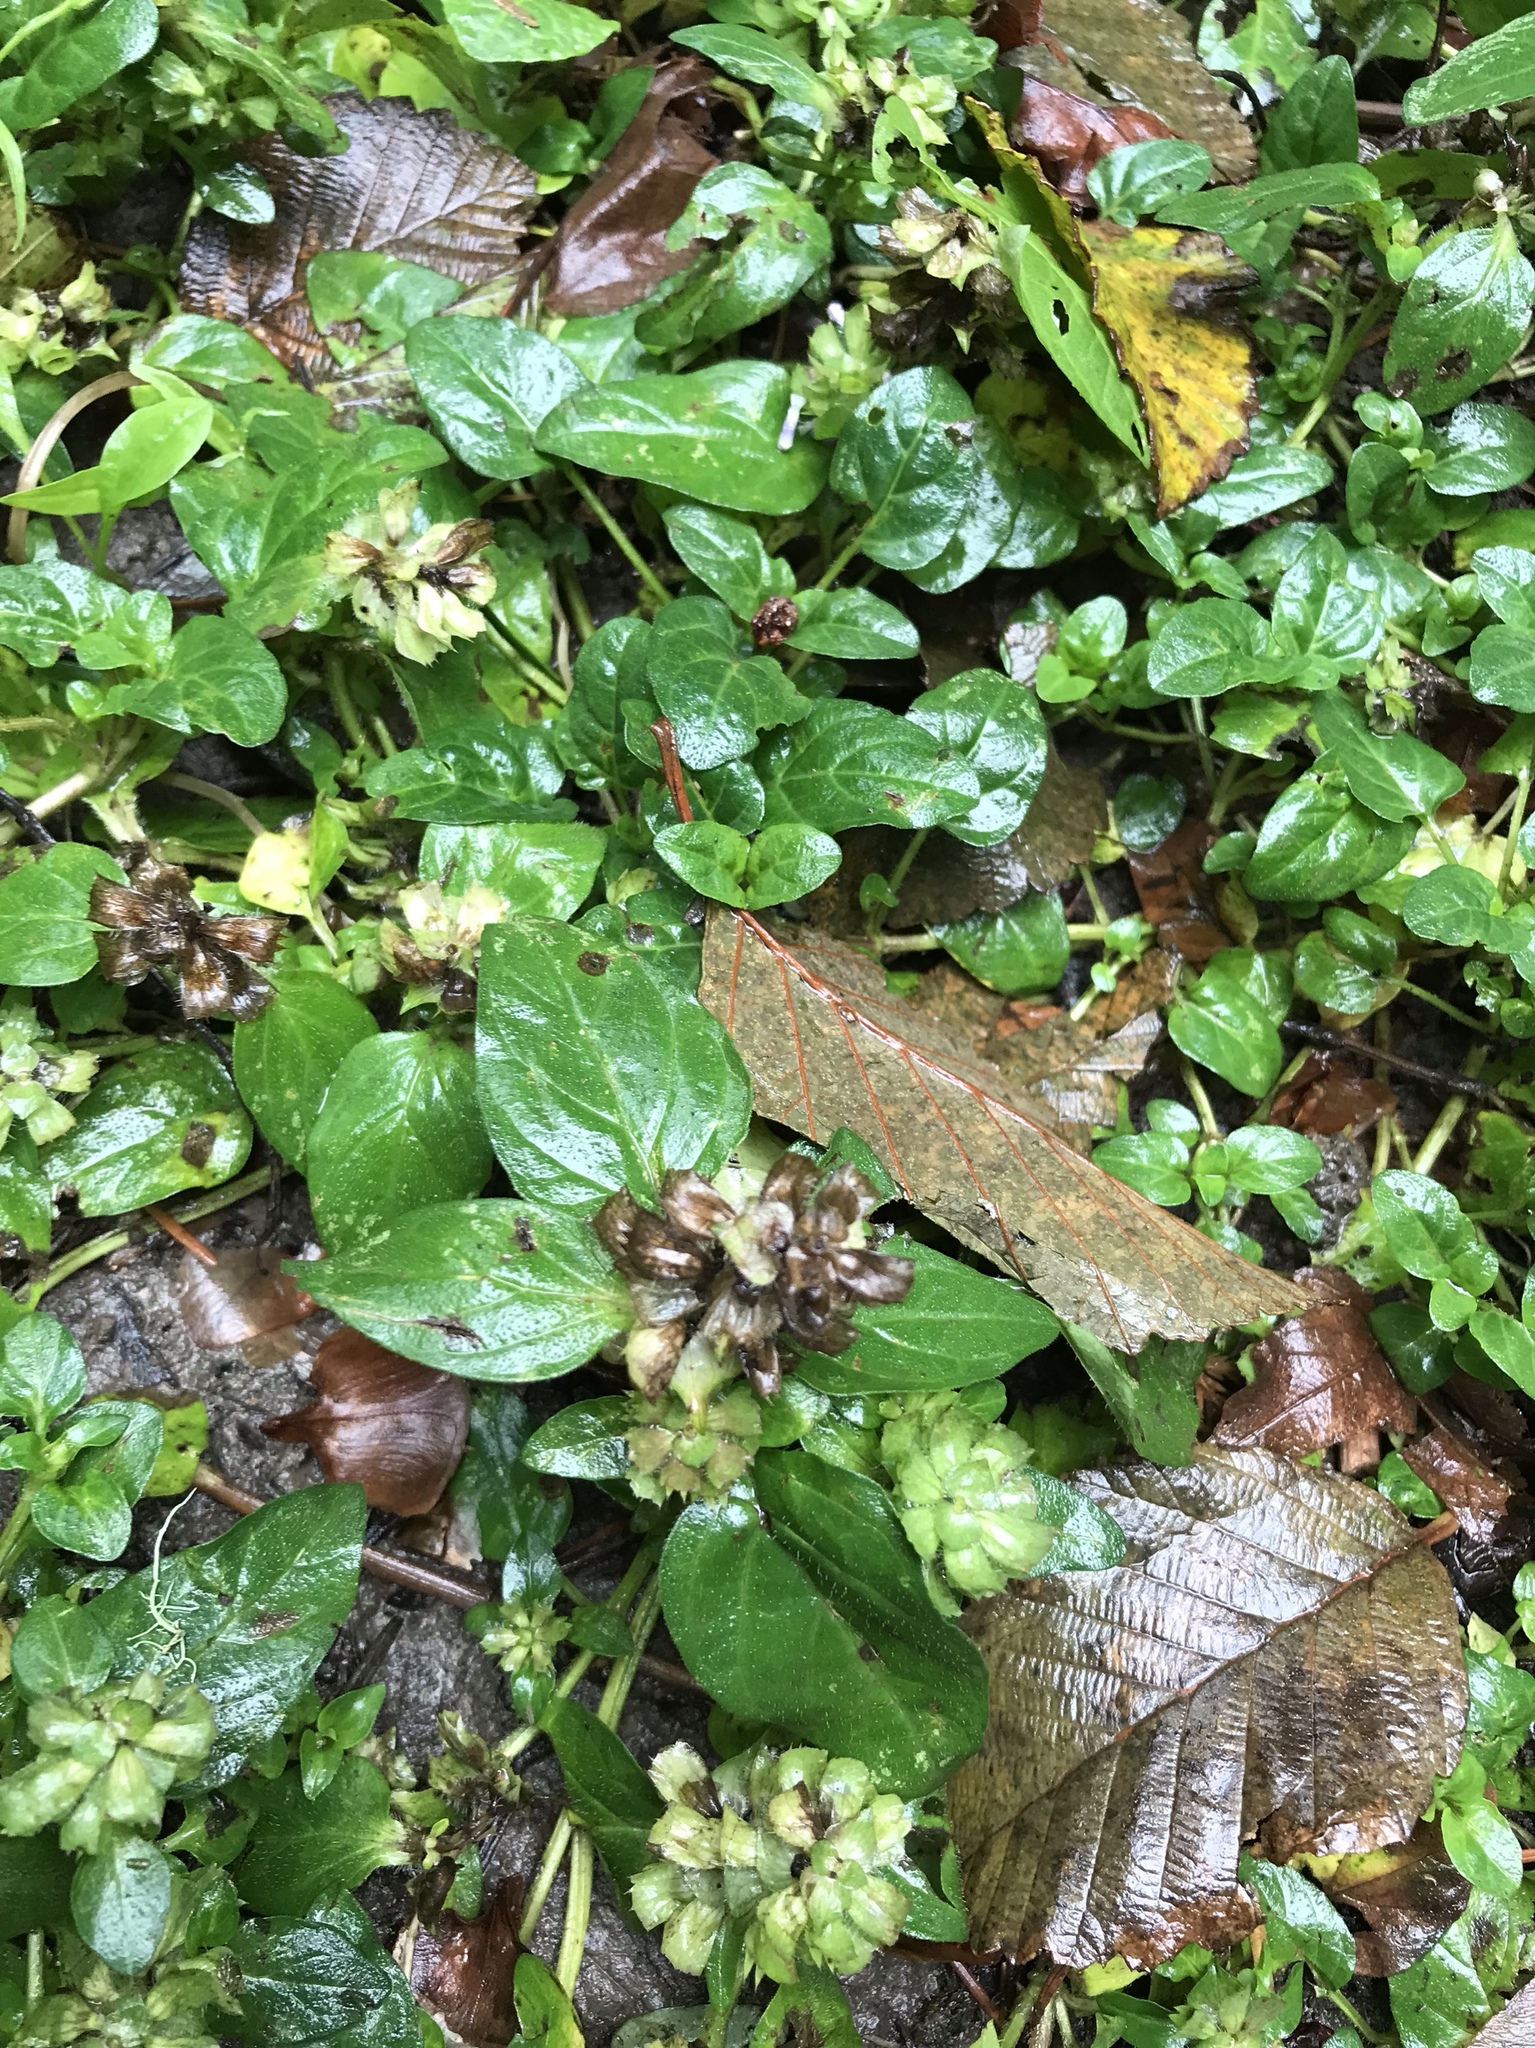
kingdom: Plantae
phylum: Tracheophyta
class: Magnoliopsida
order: Lamiales
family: Lamiaceae
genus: Prunella
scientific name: Prunella vulgaris
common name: Heal-all
